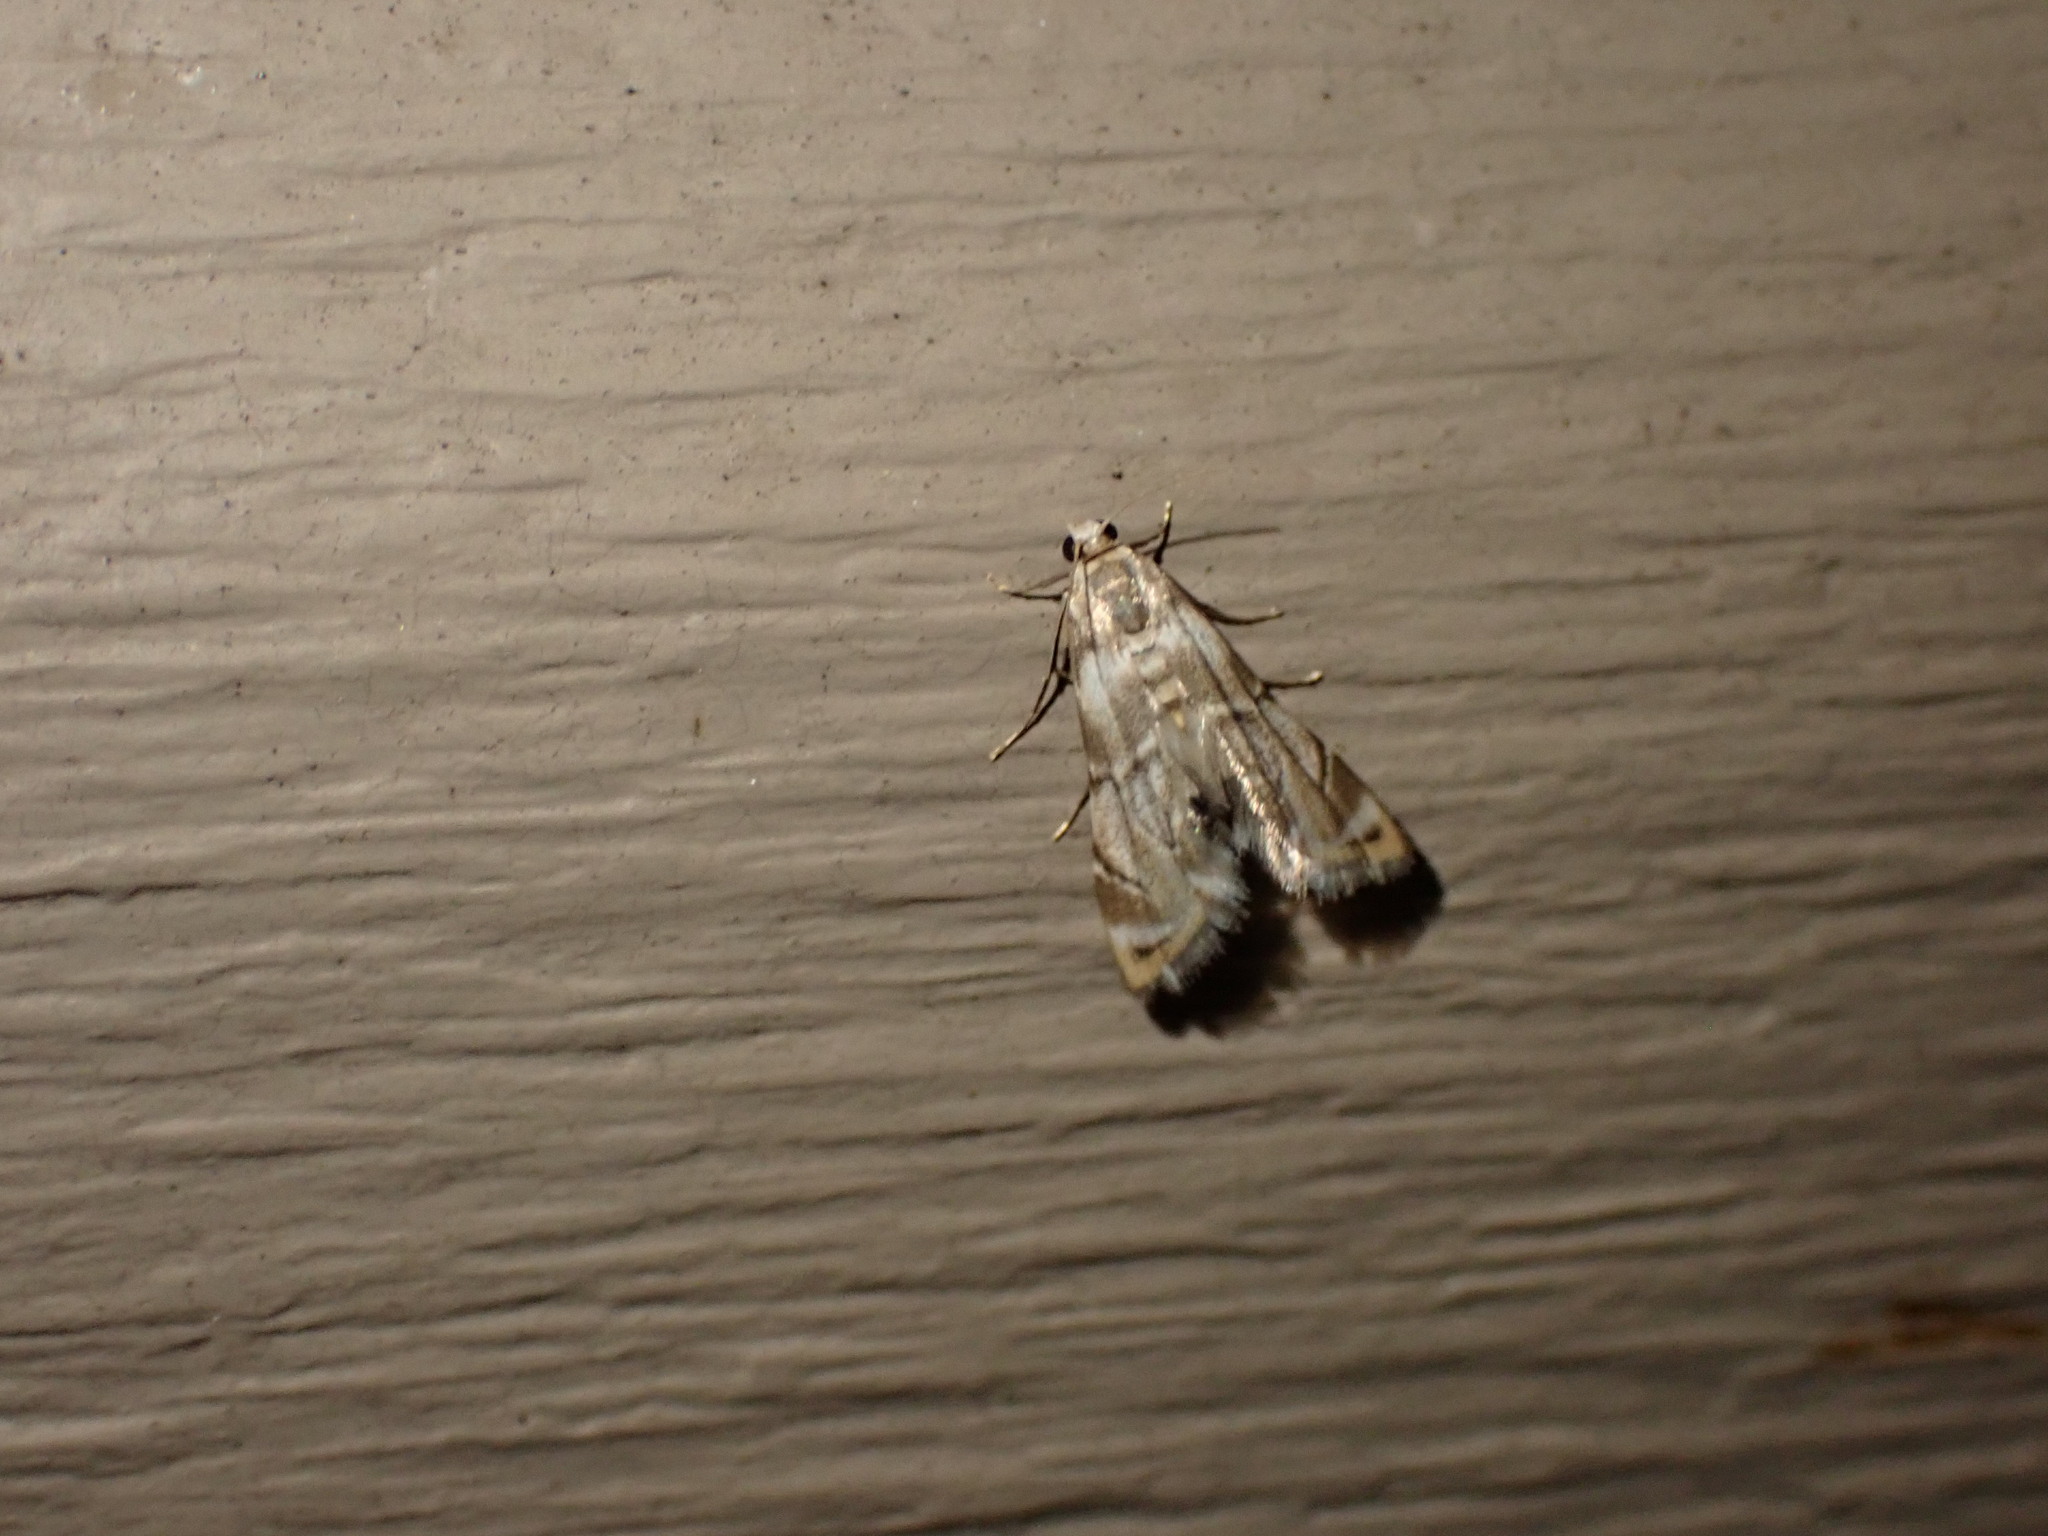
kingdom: Animalia
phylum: Arthropoda
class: Insecta
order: Lepidoptera
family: Crambidae
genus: Eoparargyractis
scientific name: Eoparargyractis plevie
